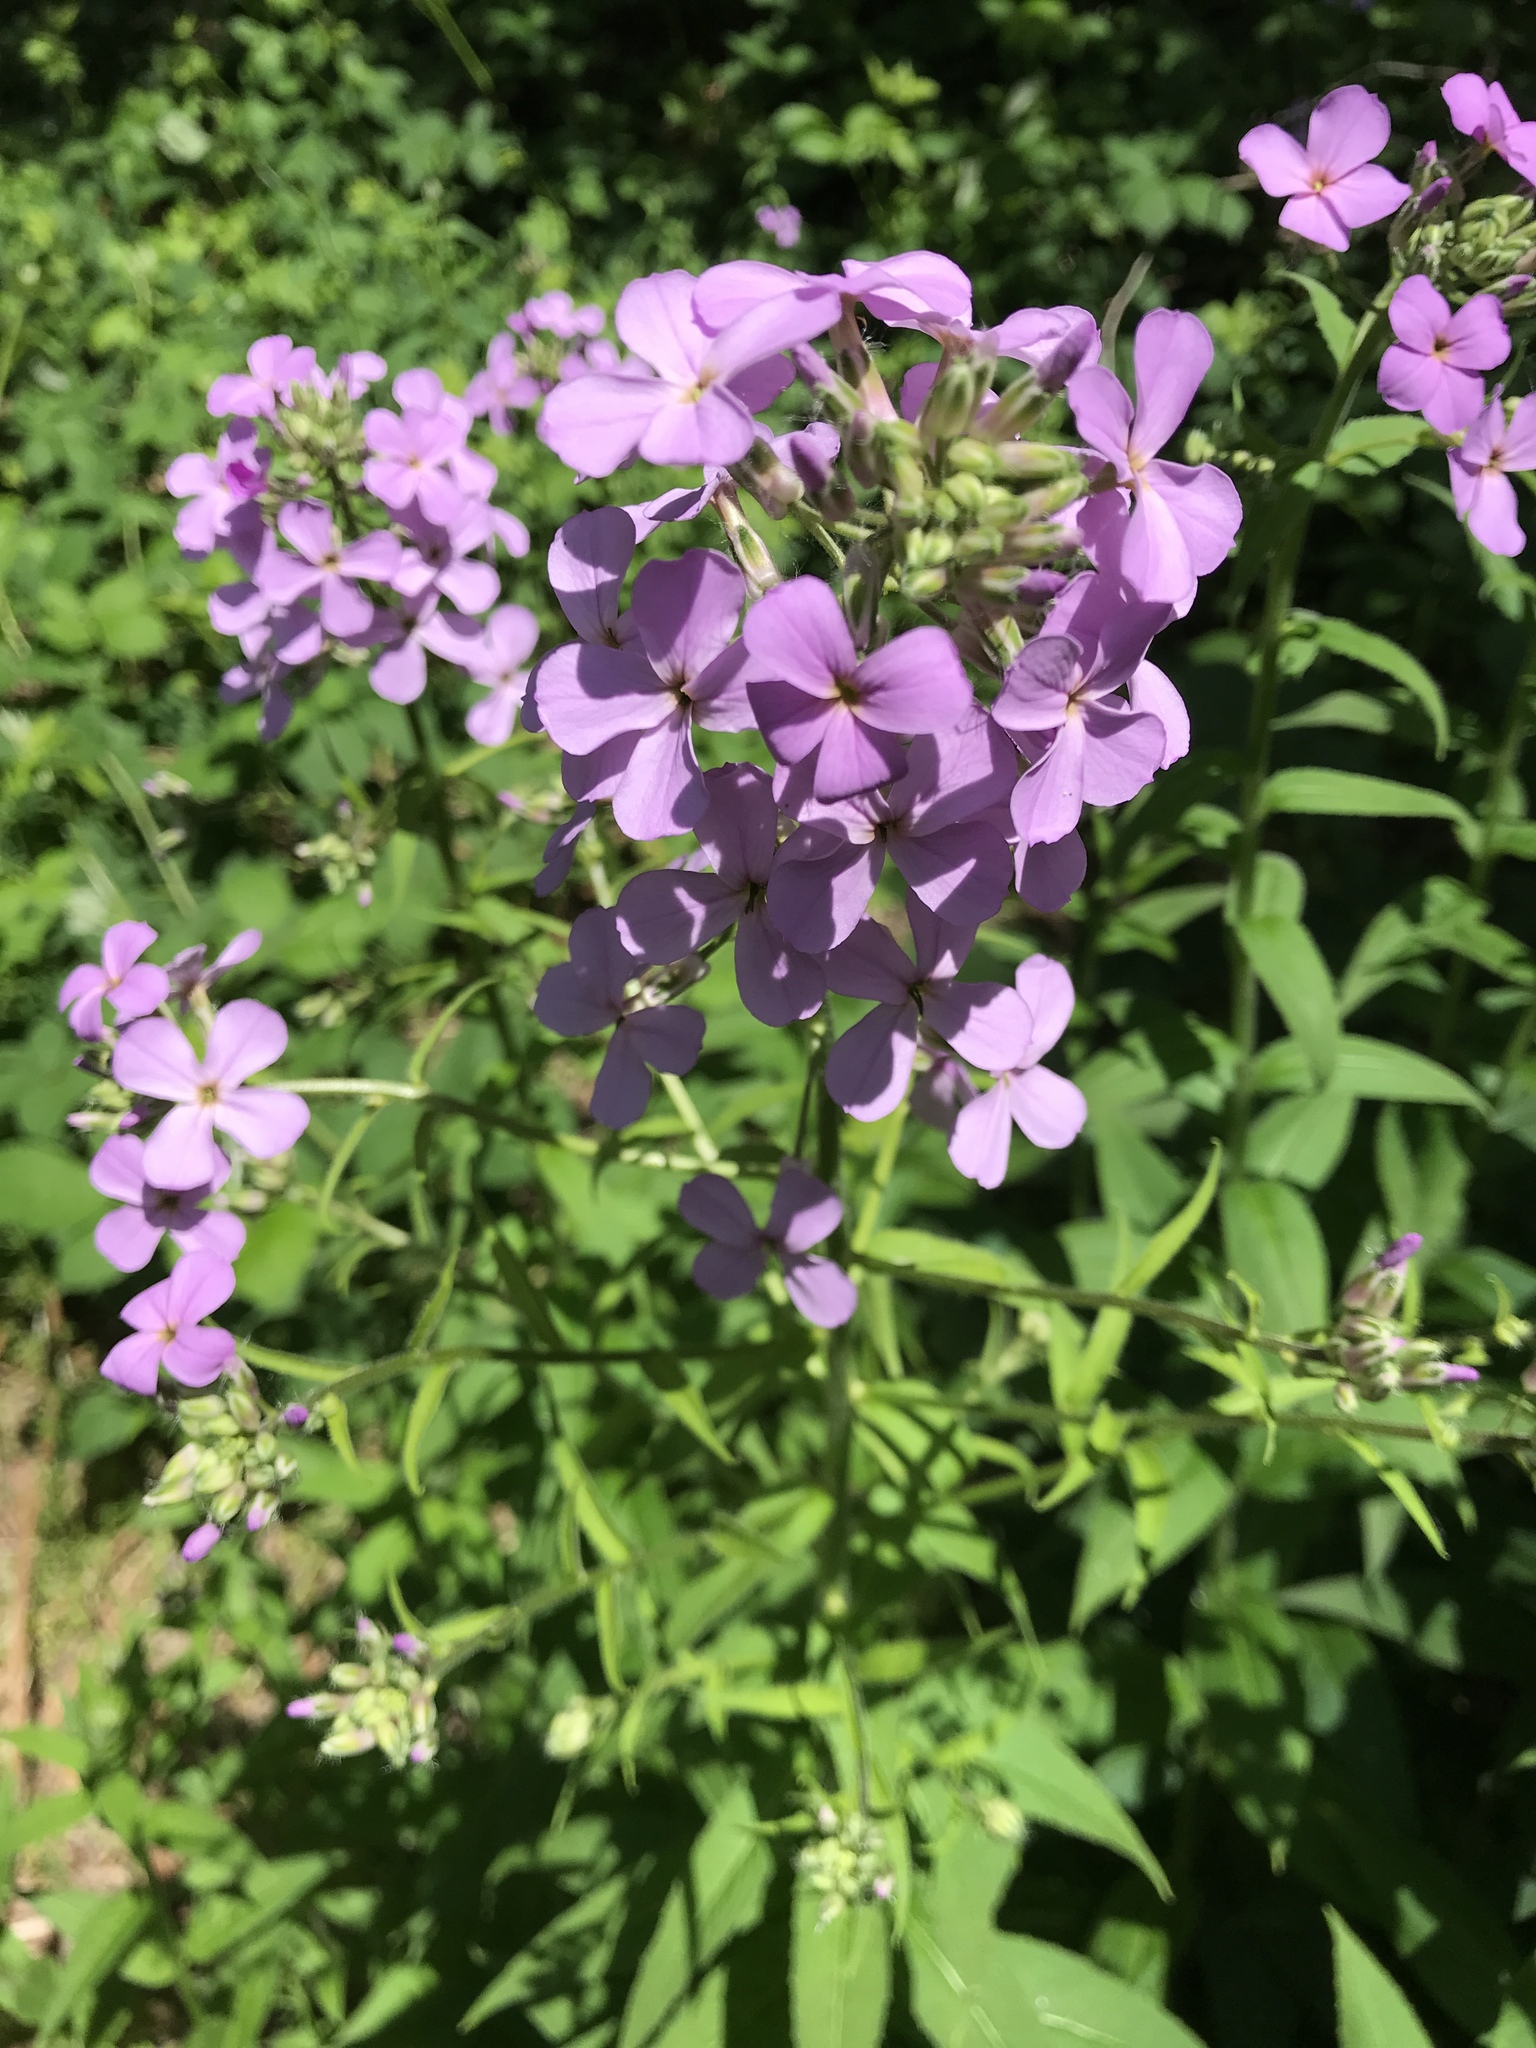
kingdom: Plantae
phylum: Tracheophyta
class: Magnoliopsida
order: Brassicales
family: Brassicaceae
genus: Hesperis
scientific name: Hesperis matronalis
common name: Dame's-violet
